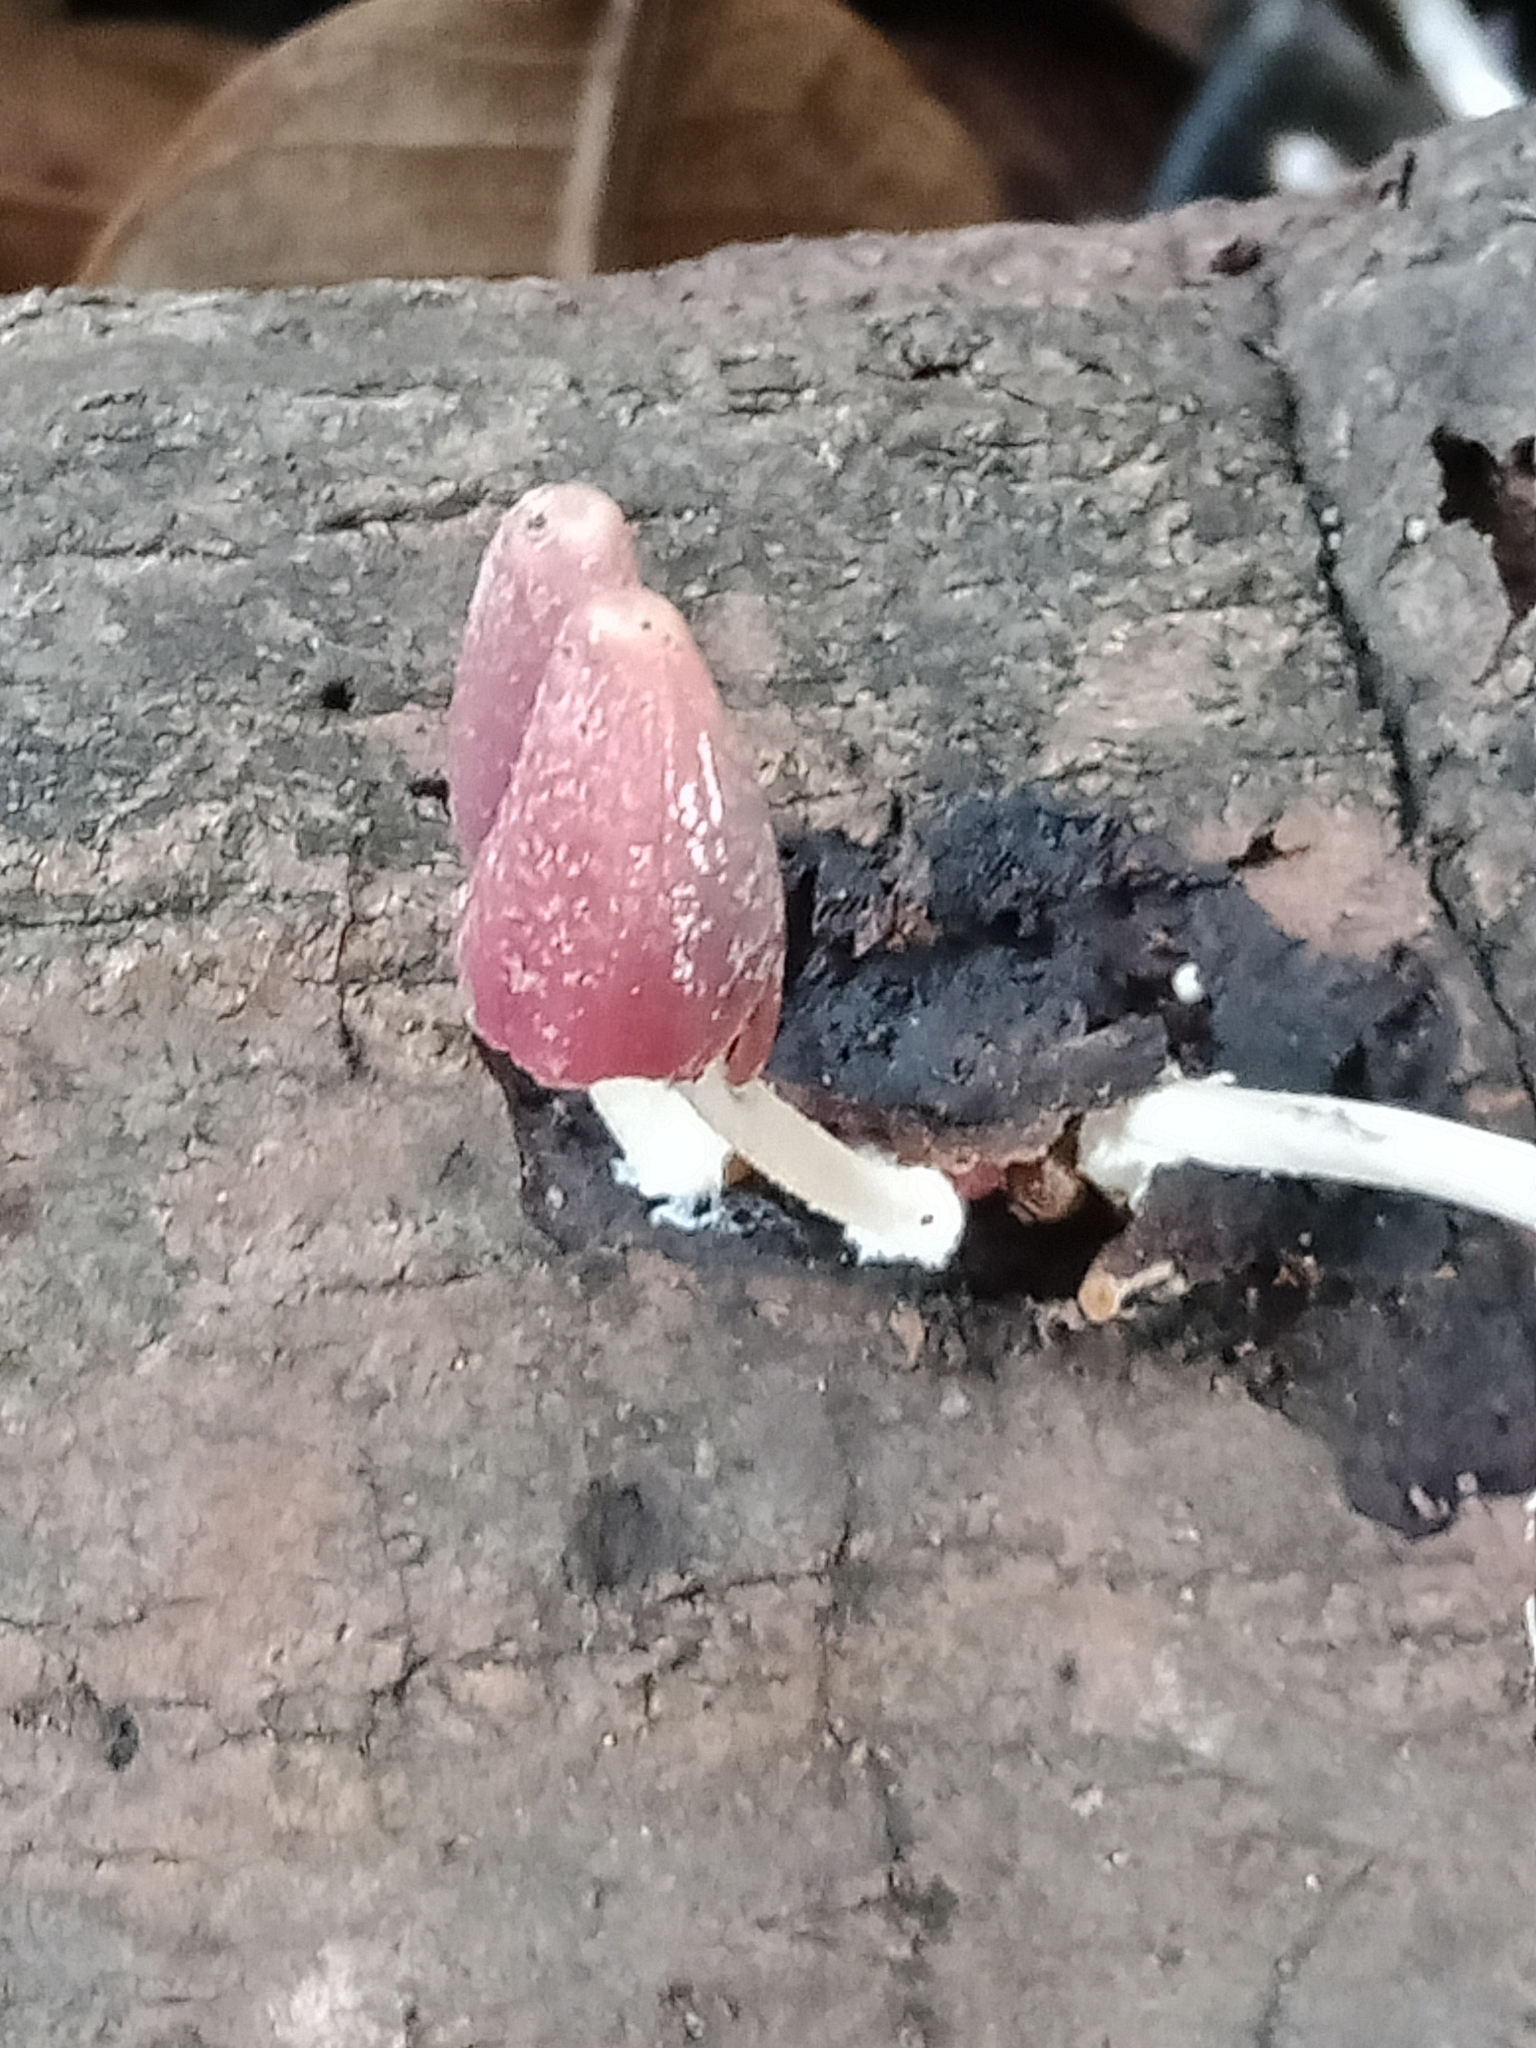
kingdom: Fungi
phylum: Basidiomycota
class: Agaricomycetes
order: Agaricales
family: Psathyrellaceae
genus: Coprinopsis
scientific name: Coprinopsis clastophylla
